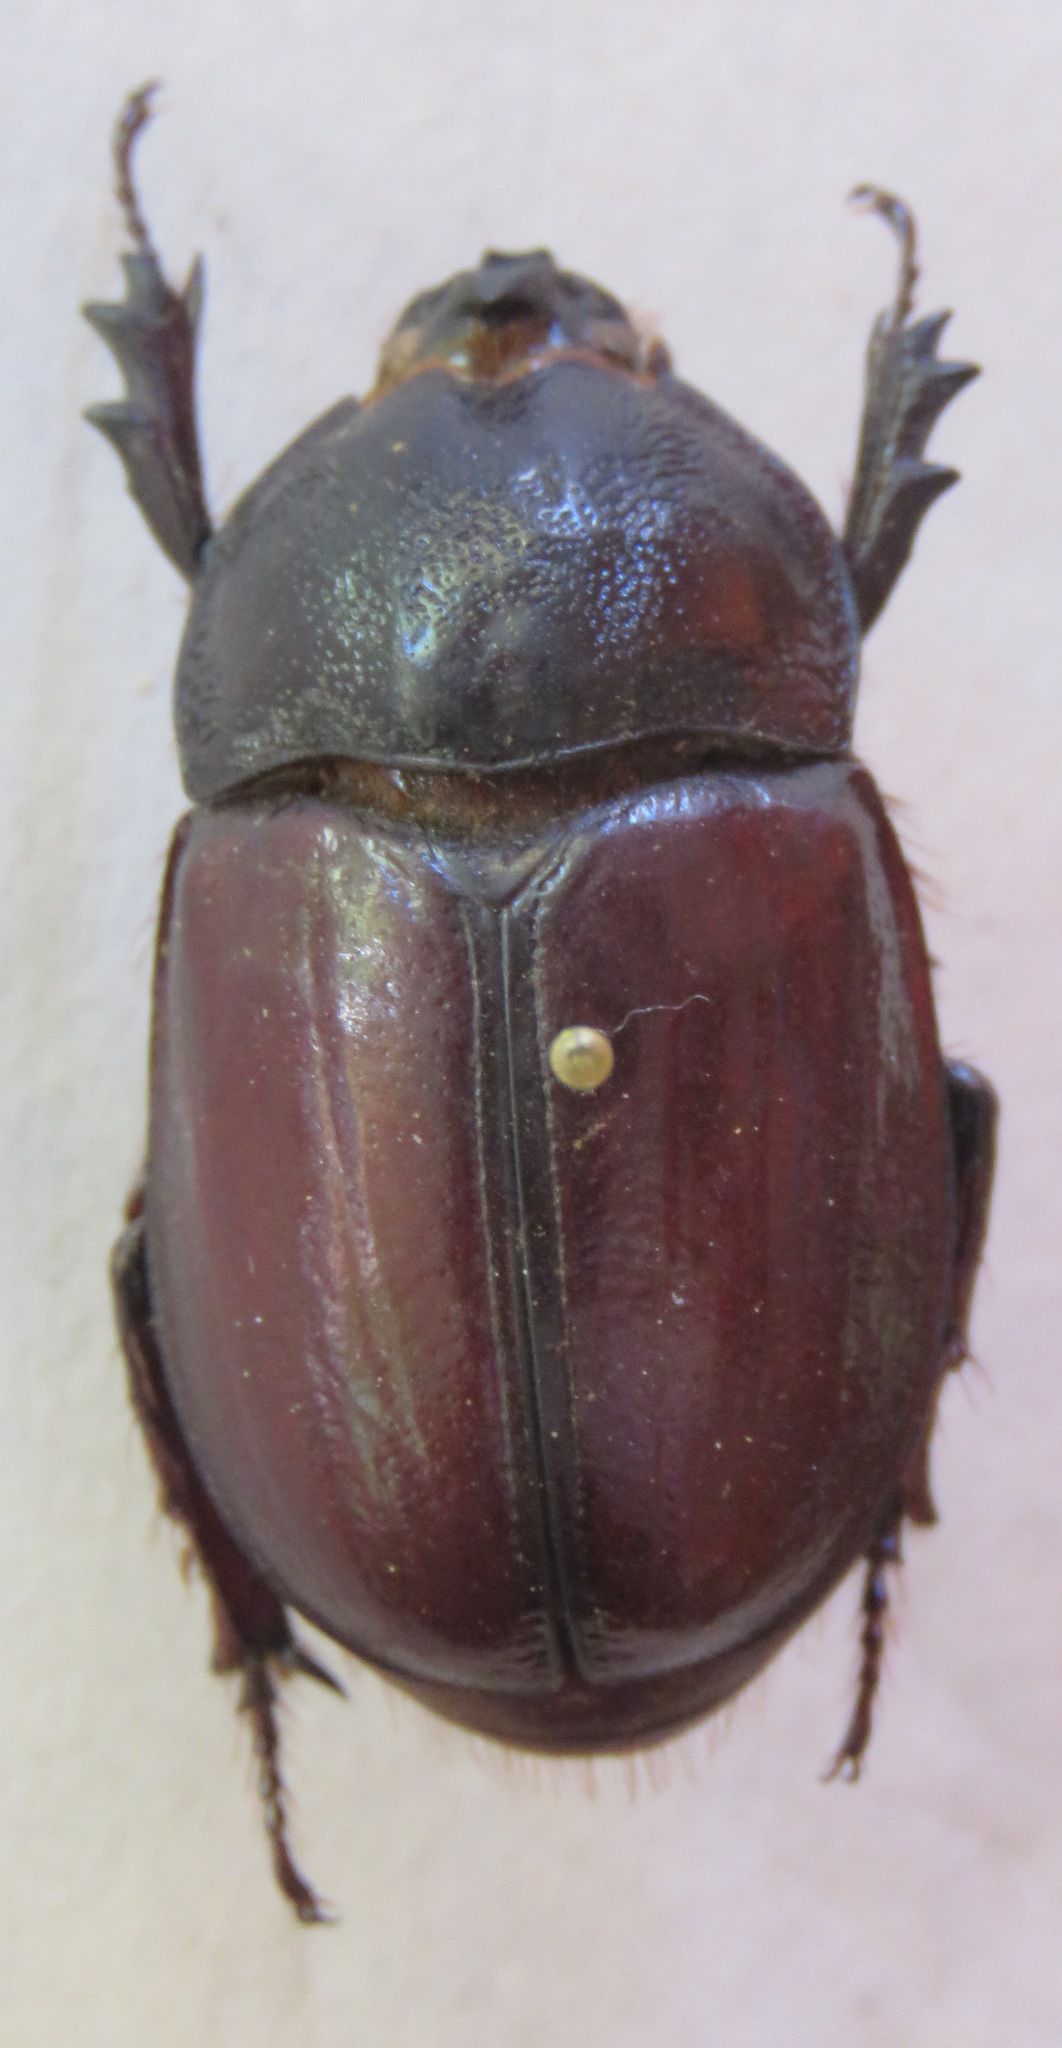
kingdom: Animalia
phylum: Arthropoda
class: Insecta
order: Coleoptera
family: Scarabaeidae
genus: Enema
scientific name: Enema endymion
